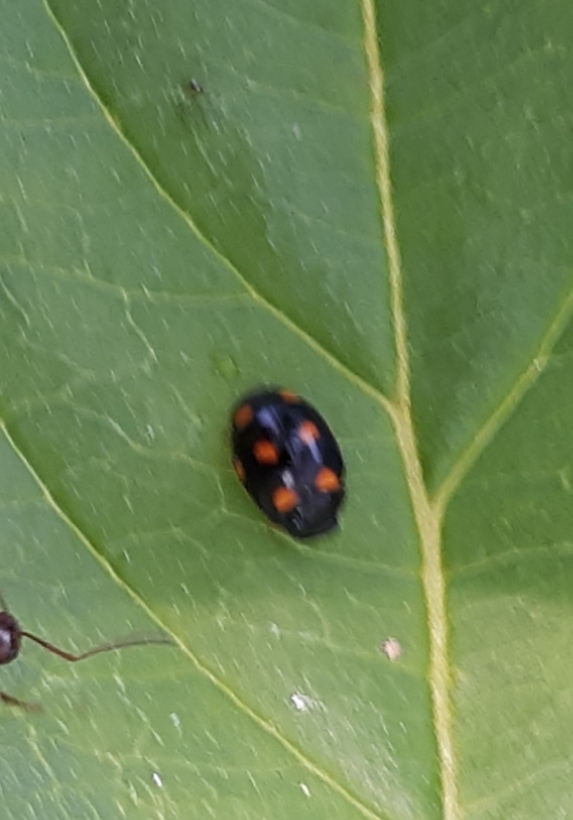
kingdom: Animalia
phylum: Arthropoda
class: Insecta
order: Coleoptera
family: Coccinellidae
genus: Brachiacantha
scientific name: Brachiacantha ursina
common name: Ursine spurleg lady beetle
